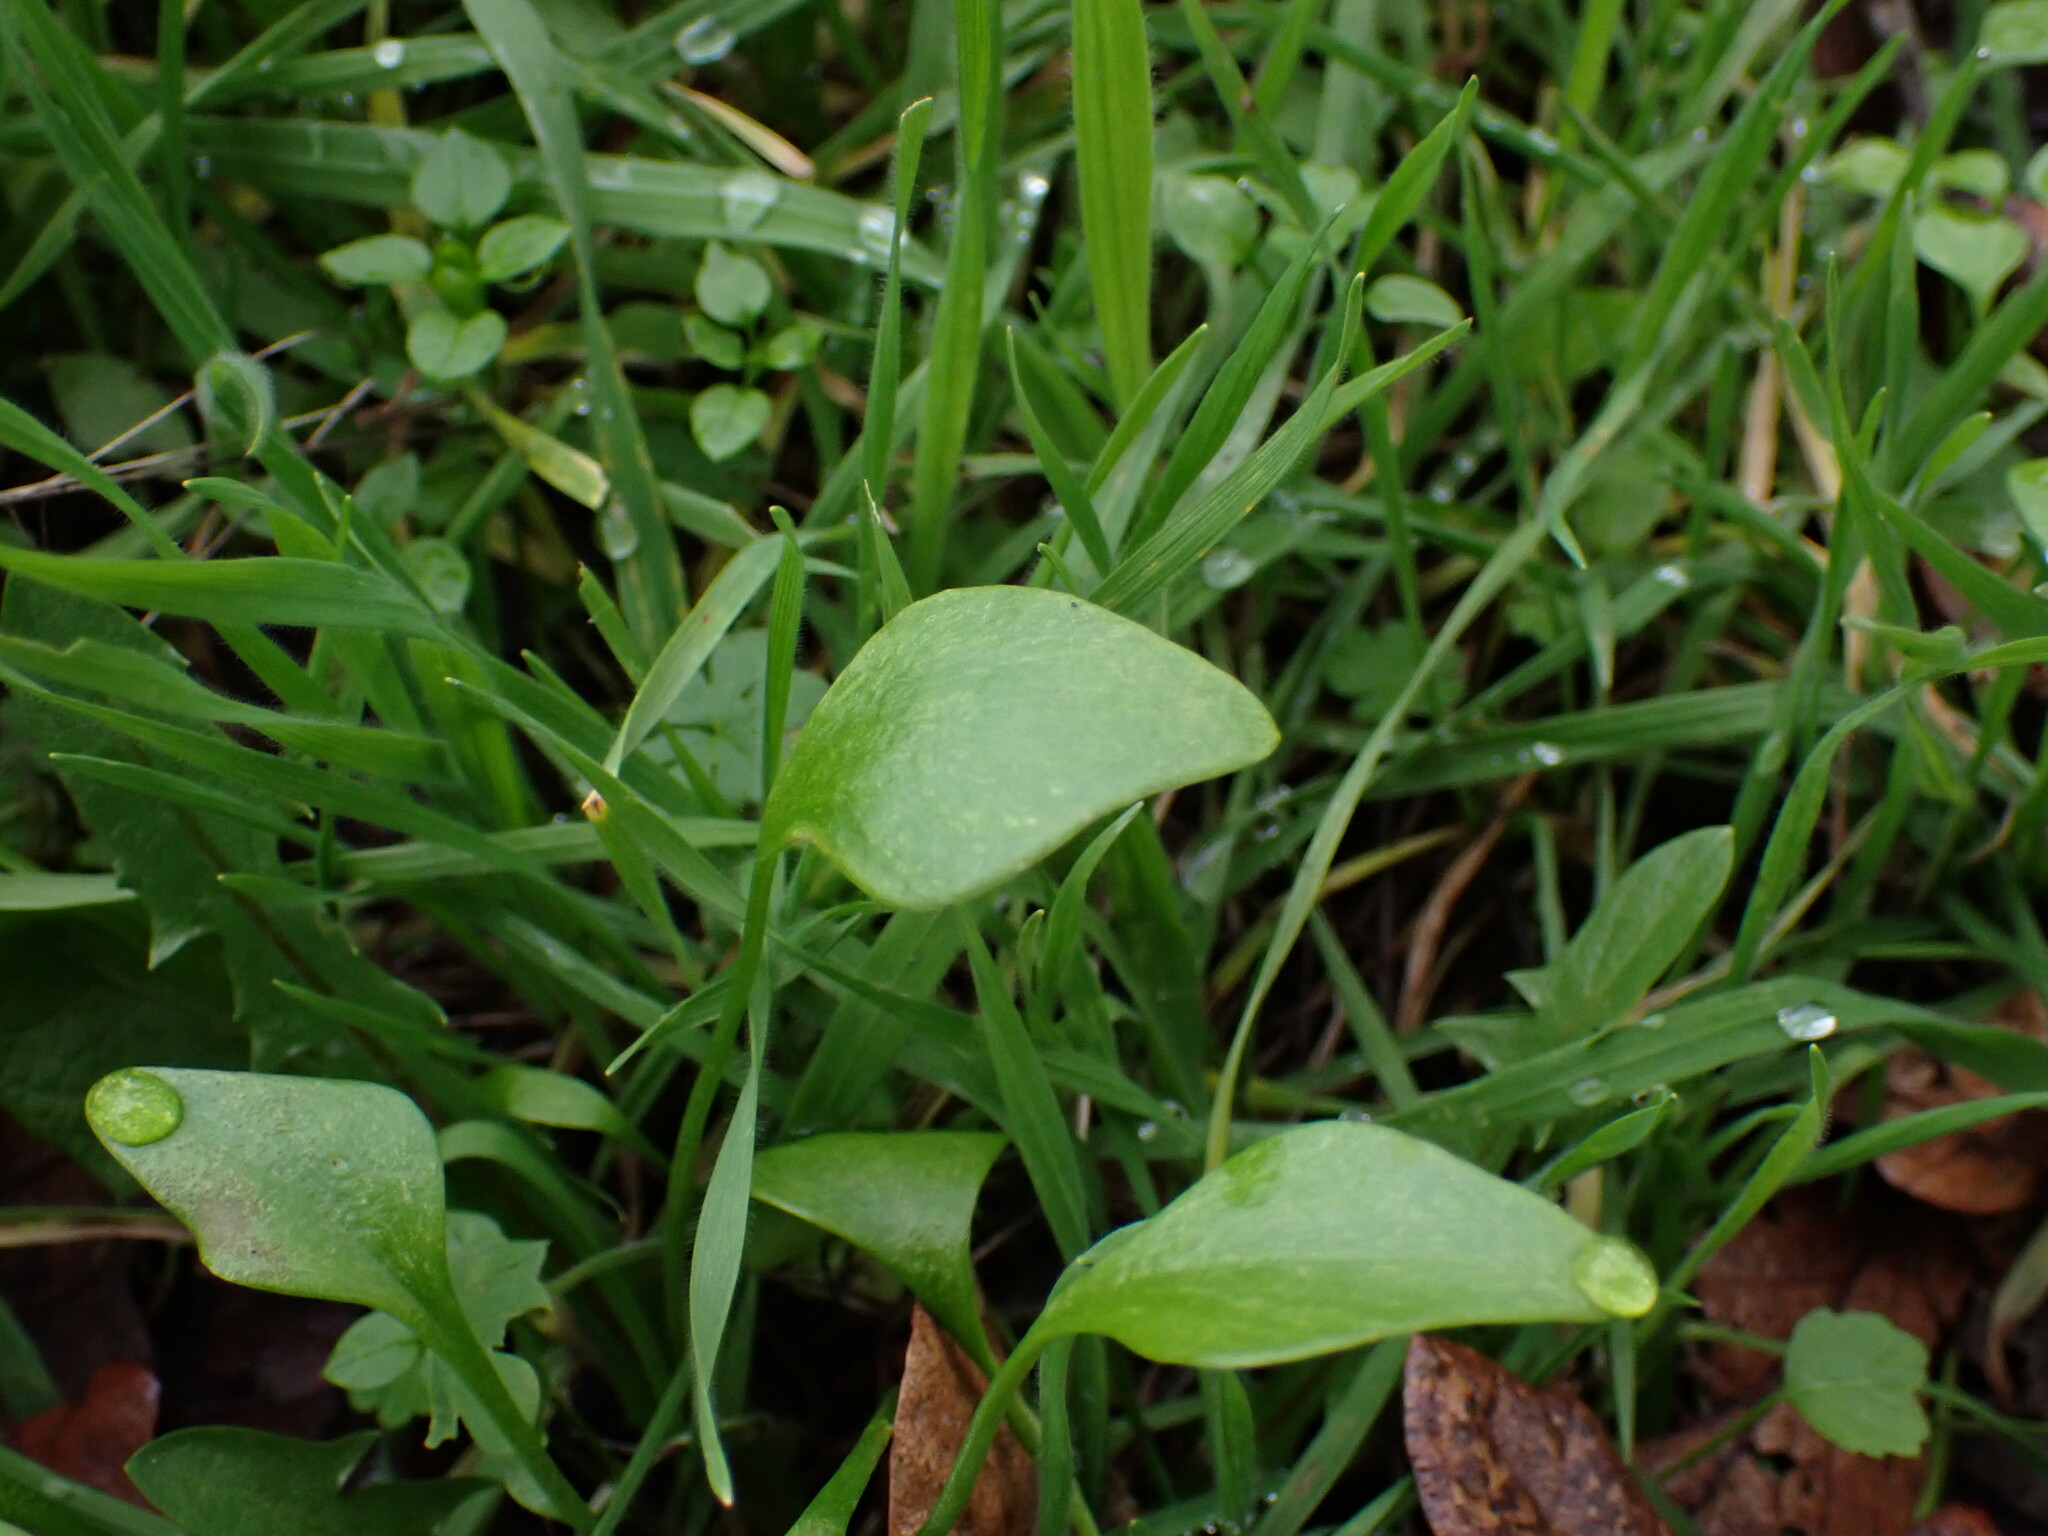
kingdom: Plantae
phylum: Tracheophyta
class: Magnoliopsida
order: Caryophyllales
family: Montiaceae
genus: Claytonia
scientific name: Claytonia perfoliata
